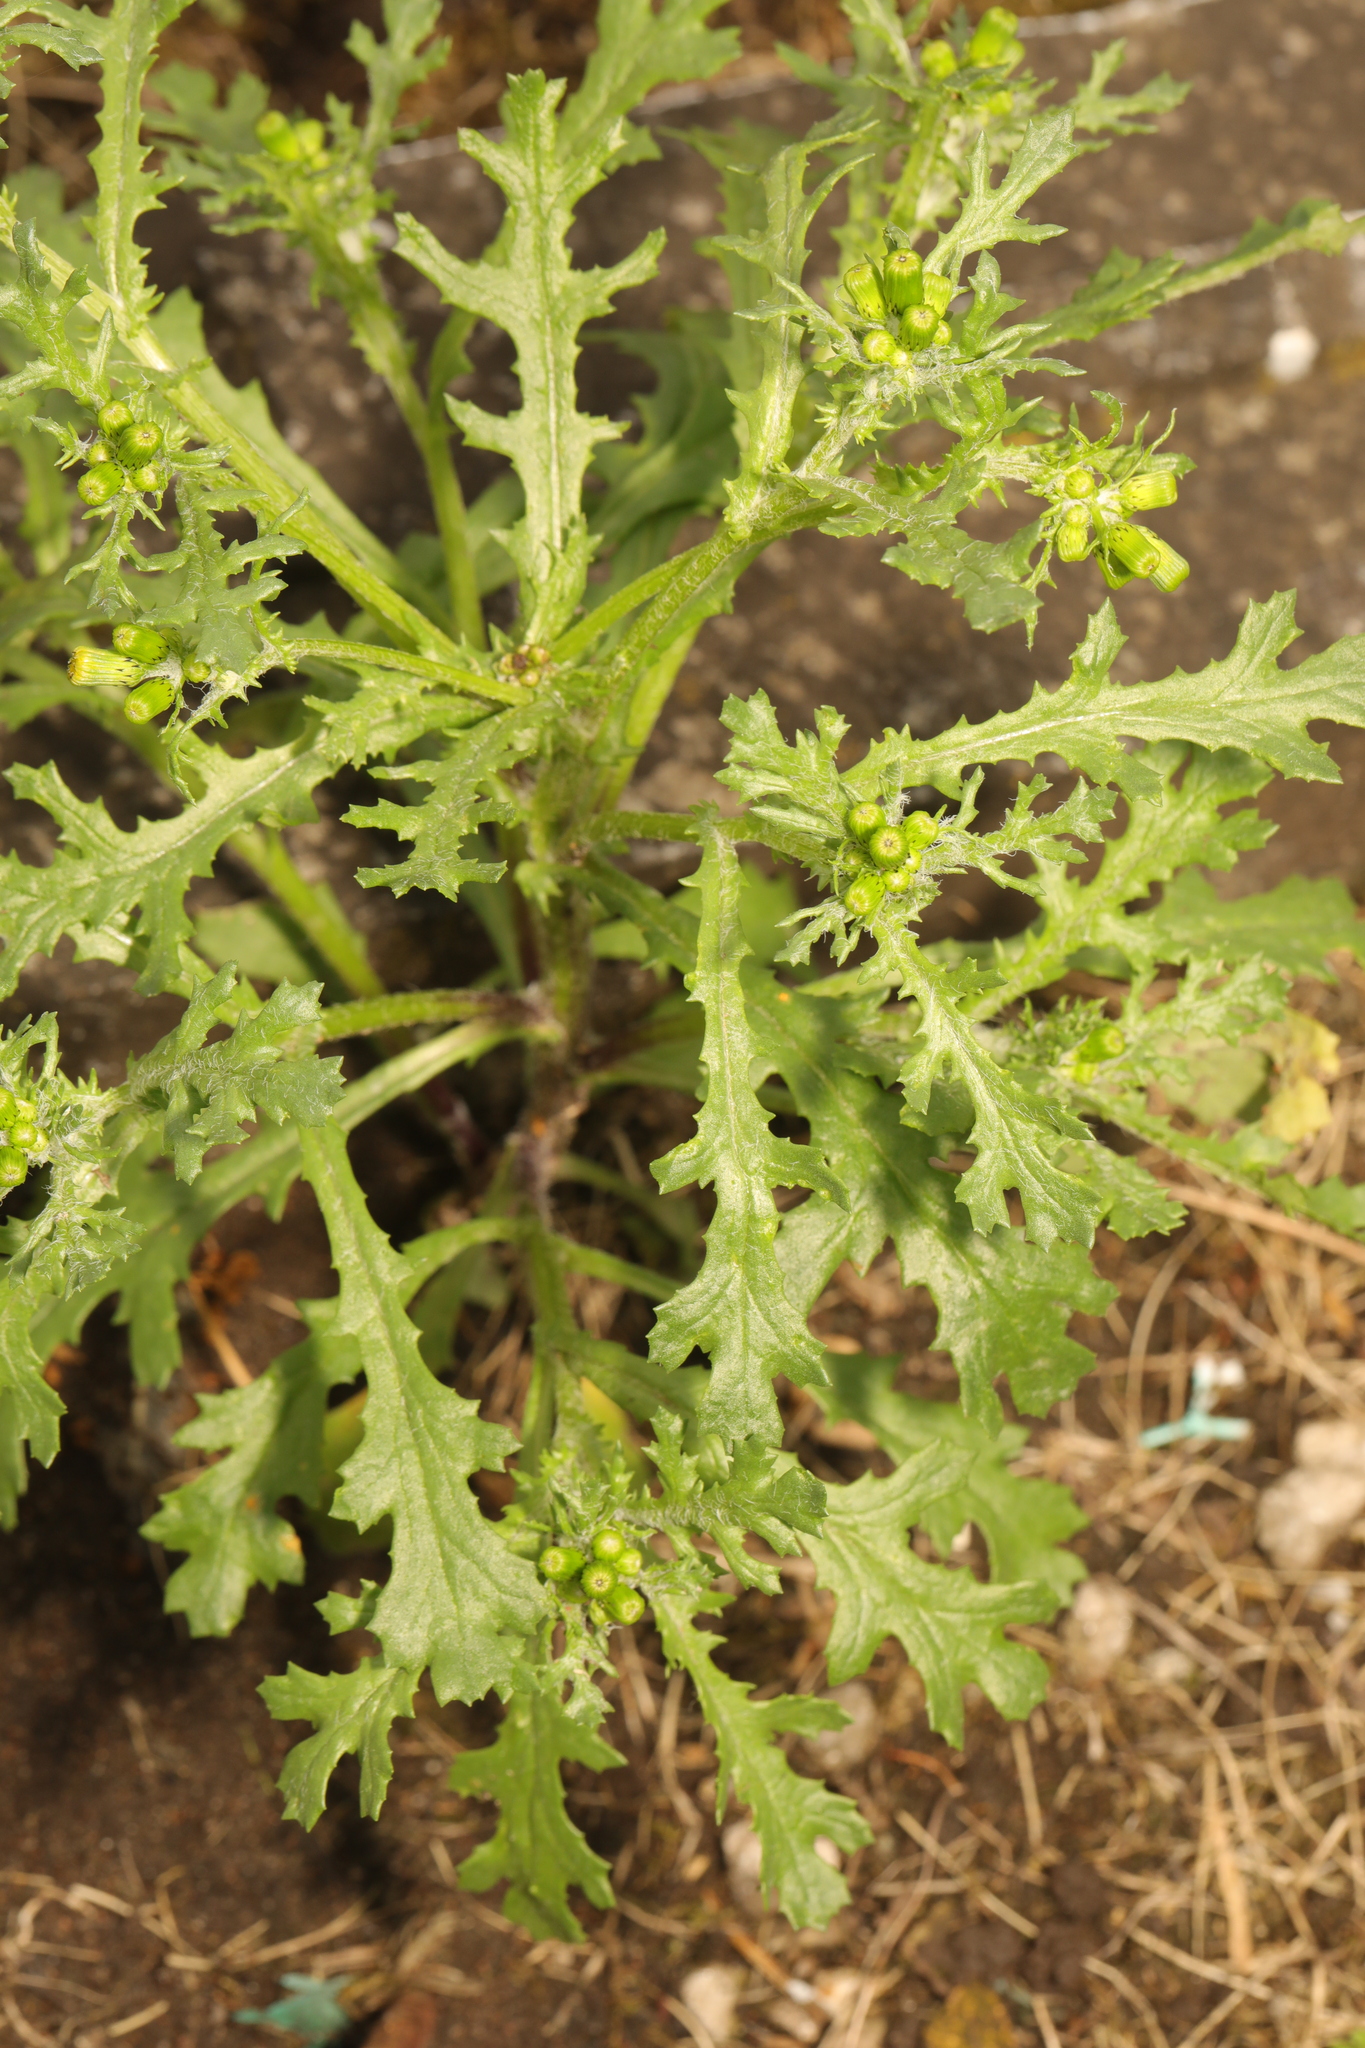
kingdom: Plantae
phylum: Tracheophyta
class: Magnoliopsida
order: Asterales
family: Asteraceae
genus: Senecio
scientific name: Senecio vulgaris
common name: Old-man-in-the-spring
